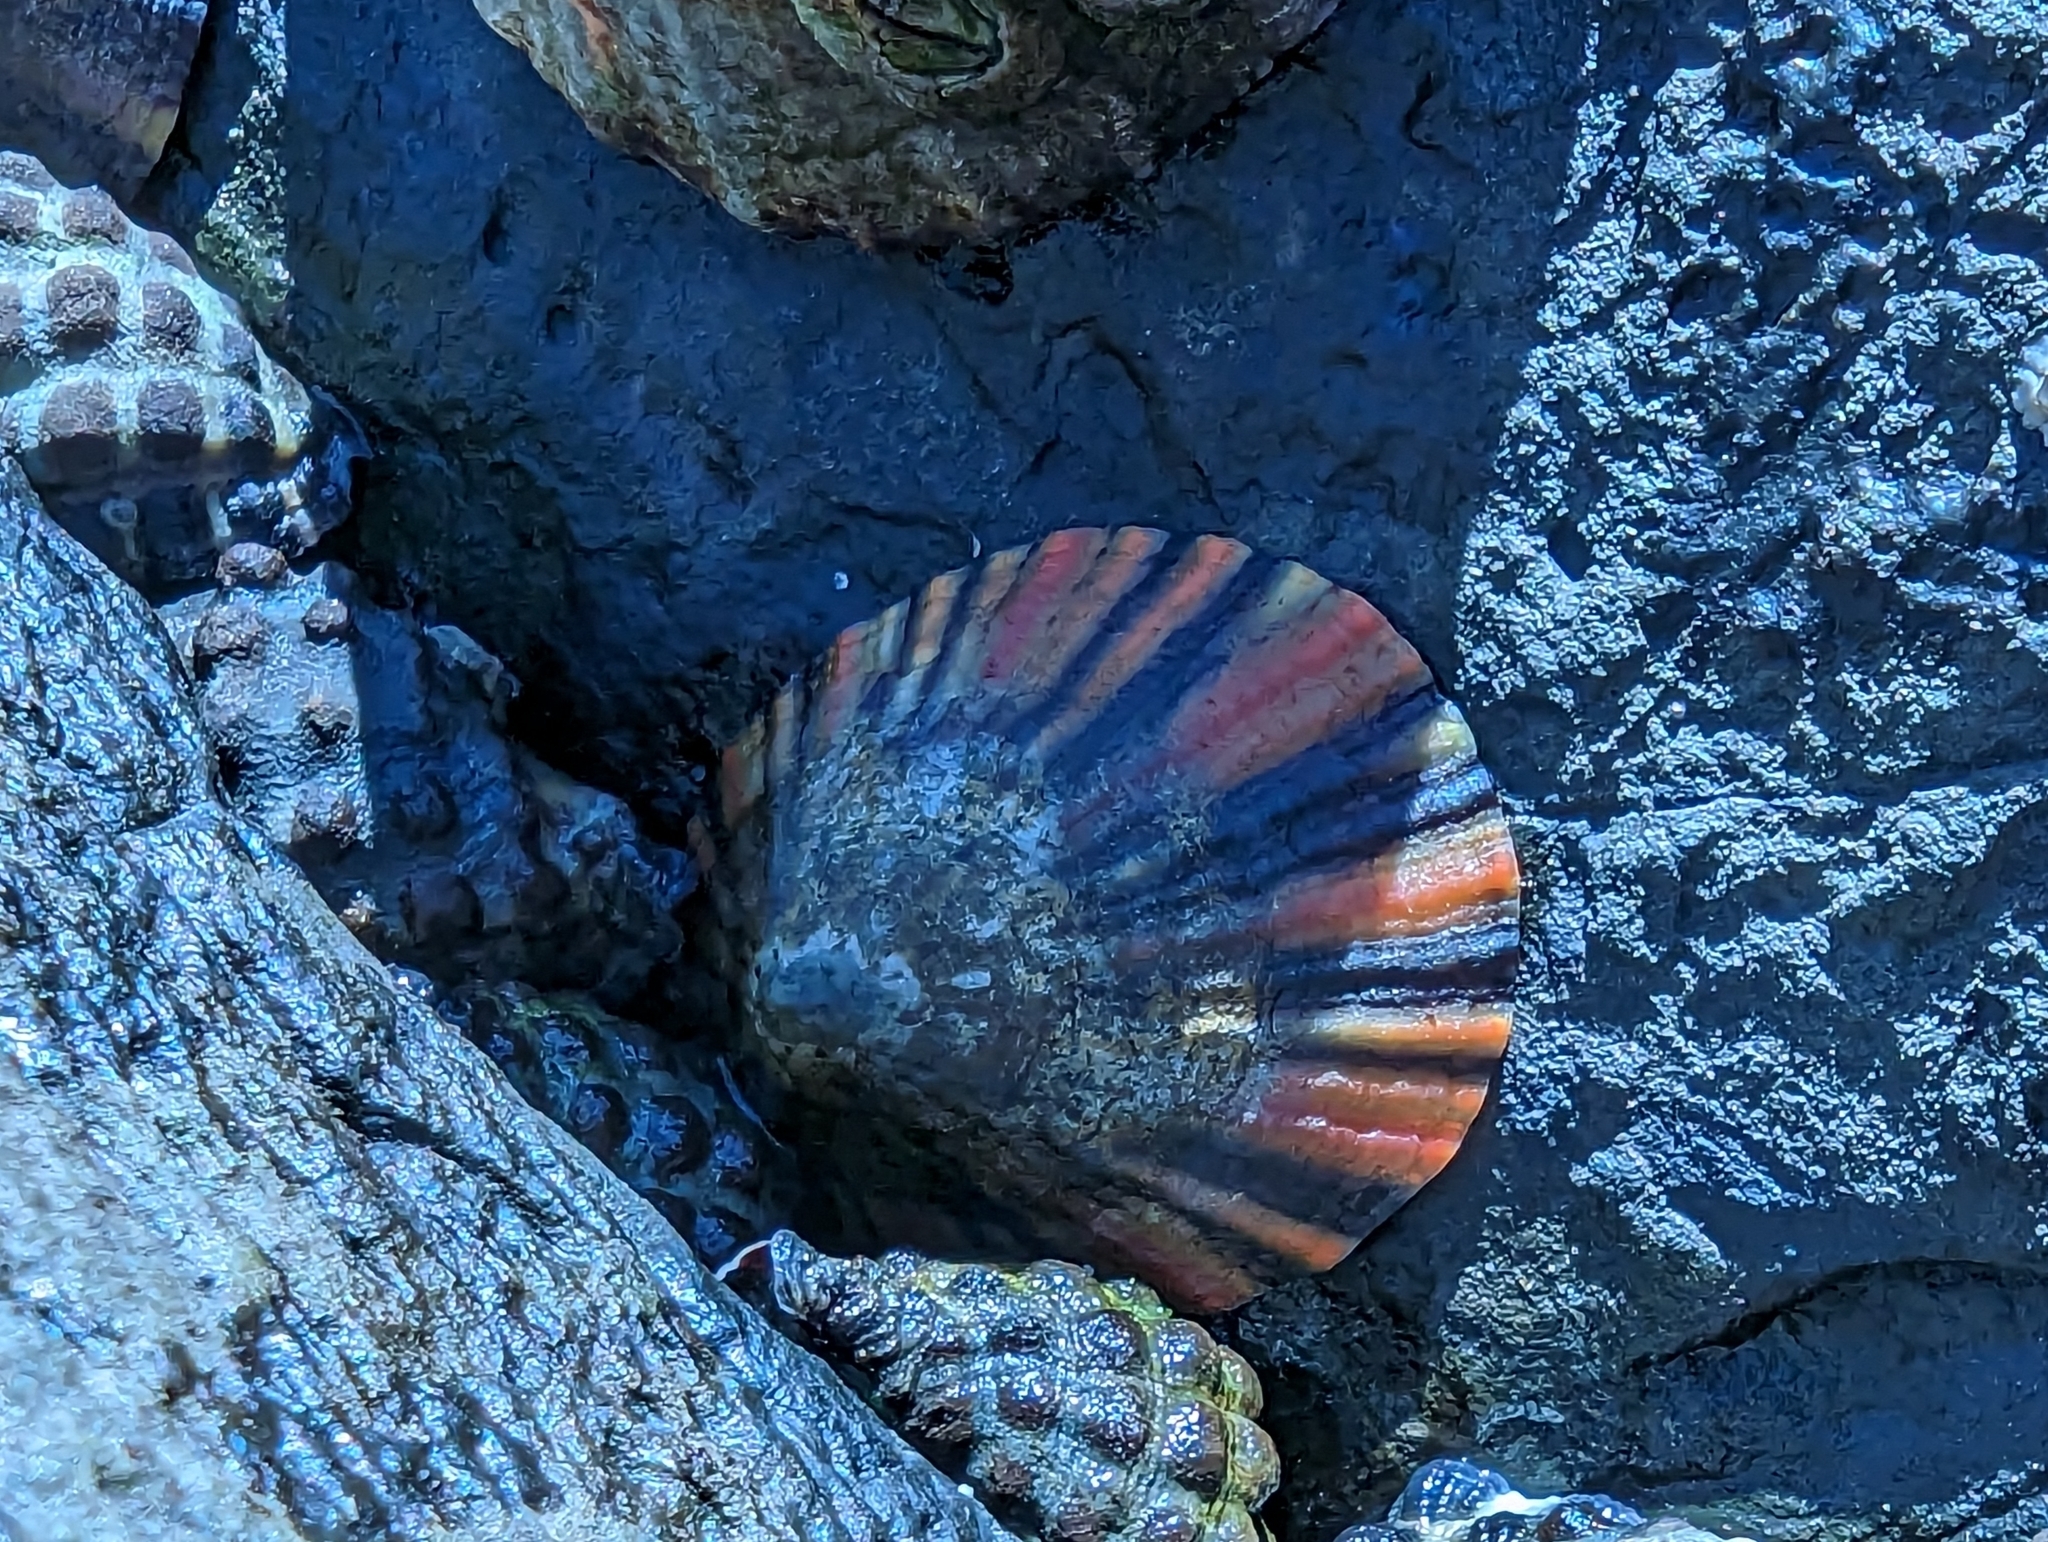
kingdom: Animalia
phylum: Mollusca
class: Gastropoda
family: Nacellidae
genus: Cellana
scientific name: Cellana tramoserica
